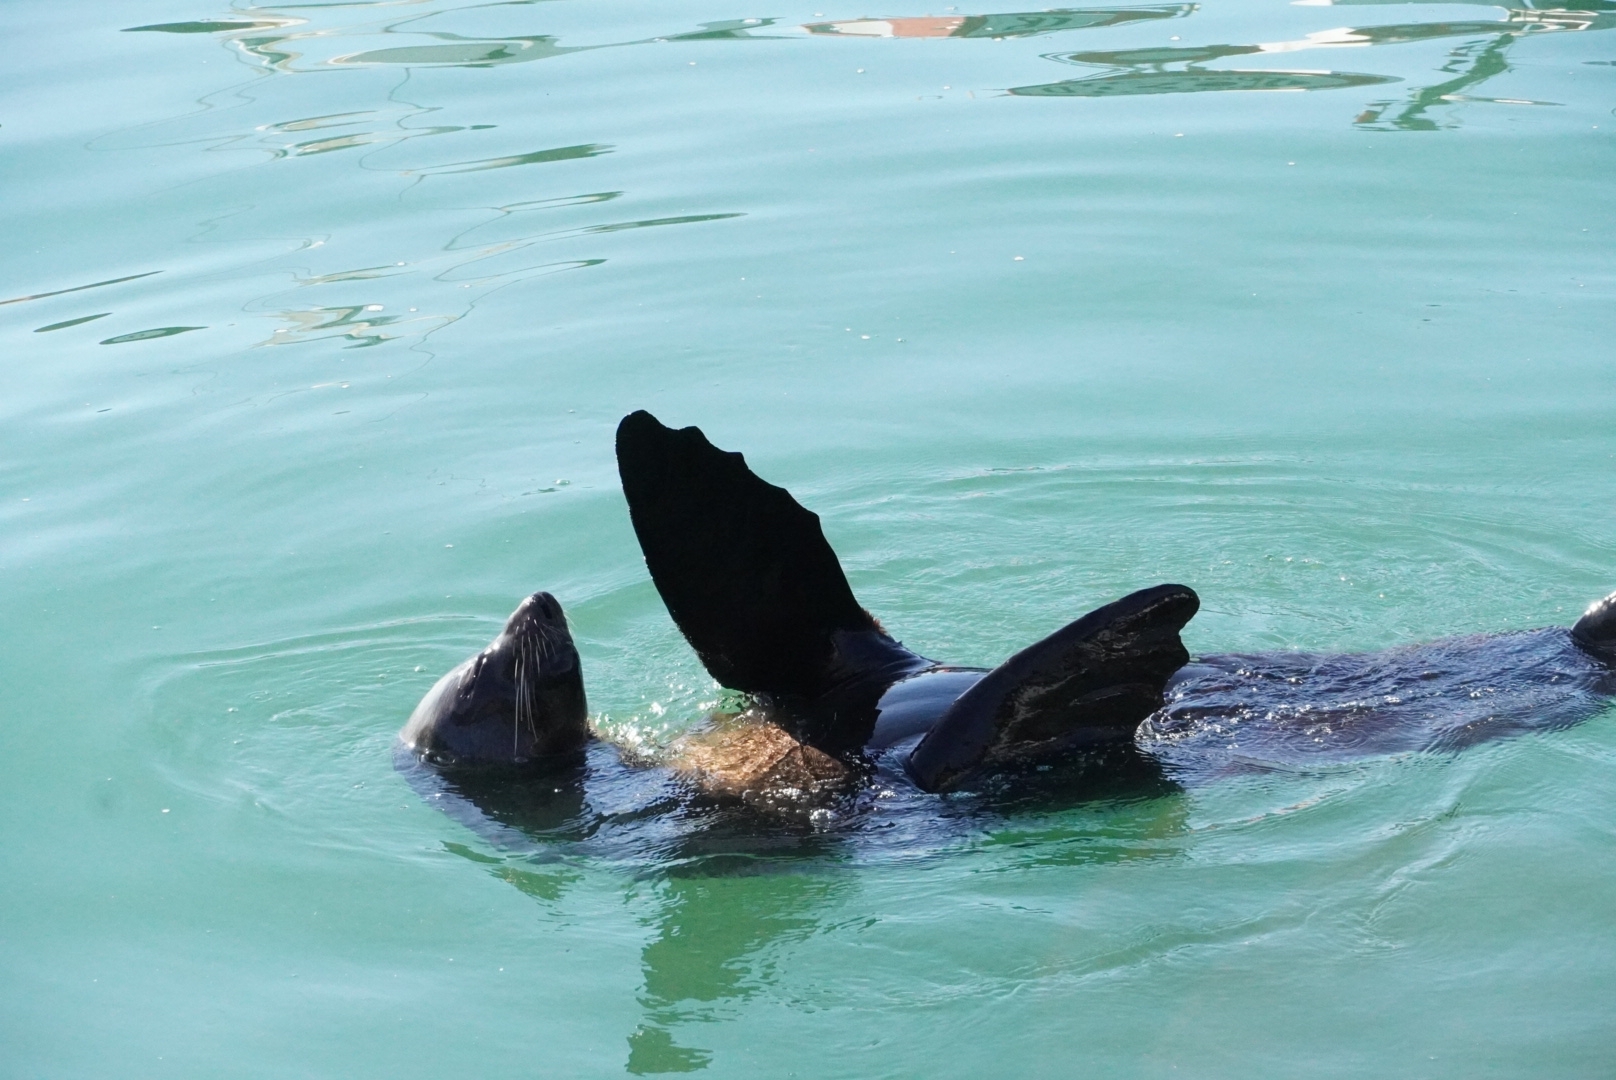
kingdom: Animalia
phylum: Chordata
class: Mammalia
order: Carnivora
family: Otariidae
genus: Arctocephalus
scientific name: Arctocephalus pusillus
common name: Brown fur seal
